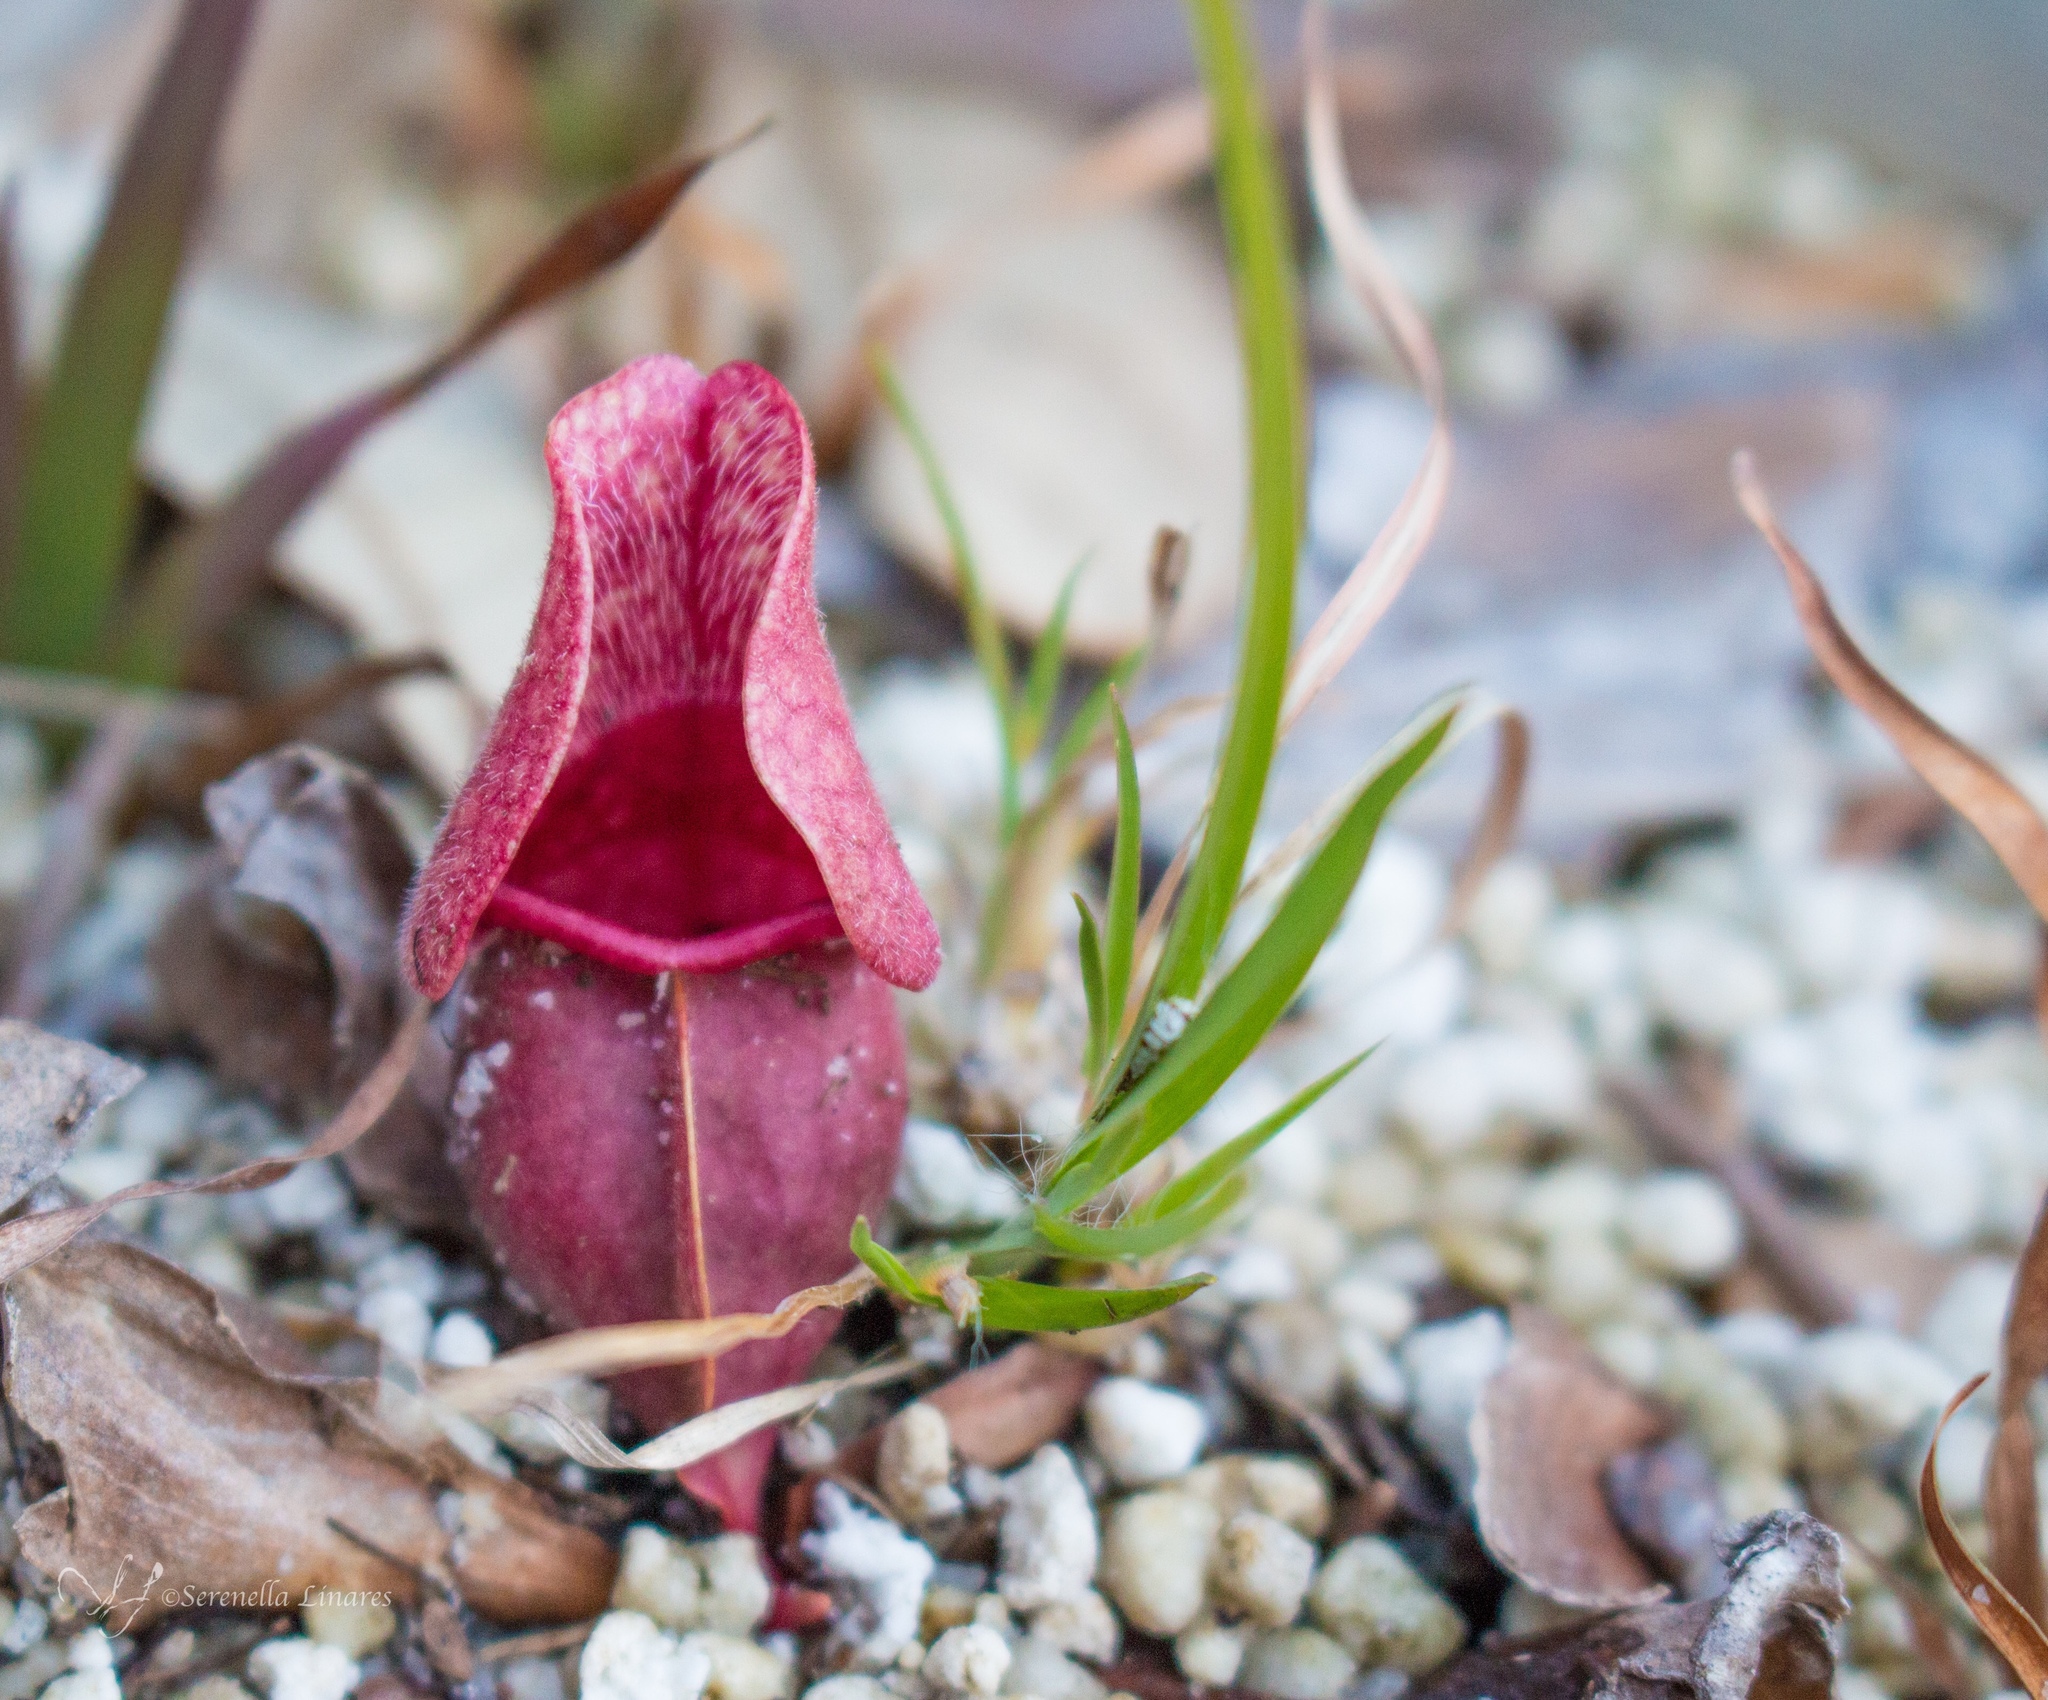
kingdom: Plantae
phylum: Tracheophyta
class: Magnoliopsida
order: Ericales
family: Sarraceniaceae
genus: Sarracenia
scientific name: Sarracenia purpurea
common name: Pitcherplant
